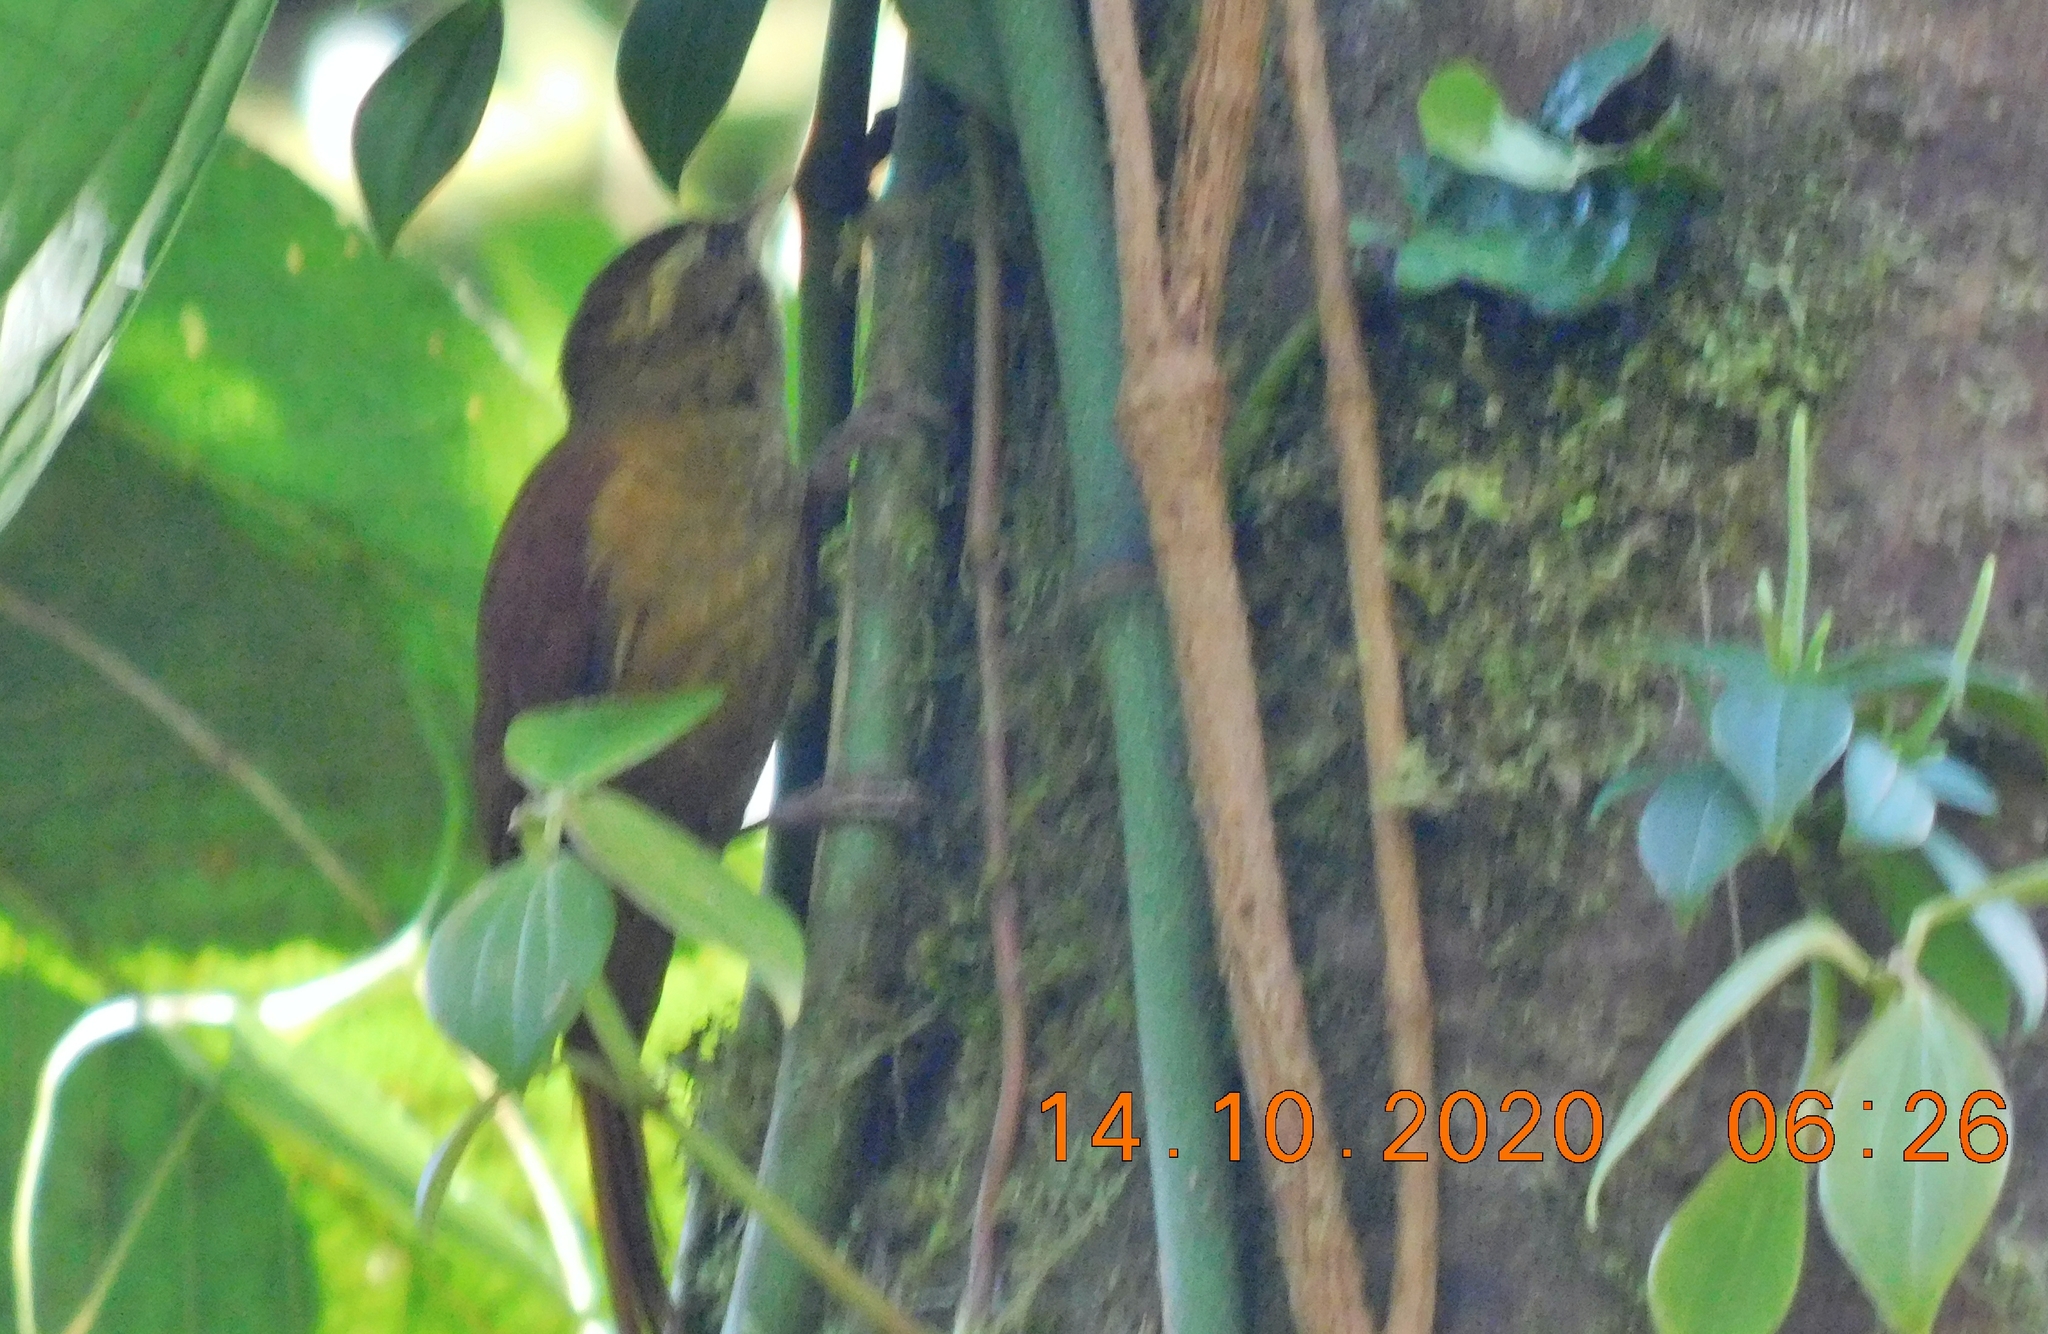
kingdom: Animalia
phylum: Chordata
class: Aves
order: Passeriformes
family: Furnariidae
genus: Margarornis
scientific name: Margarornis rubiginosus
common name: Ruddy treerunner
